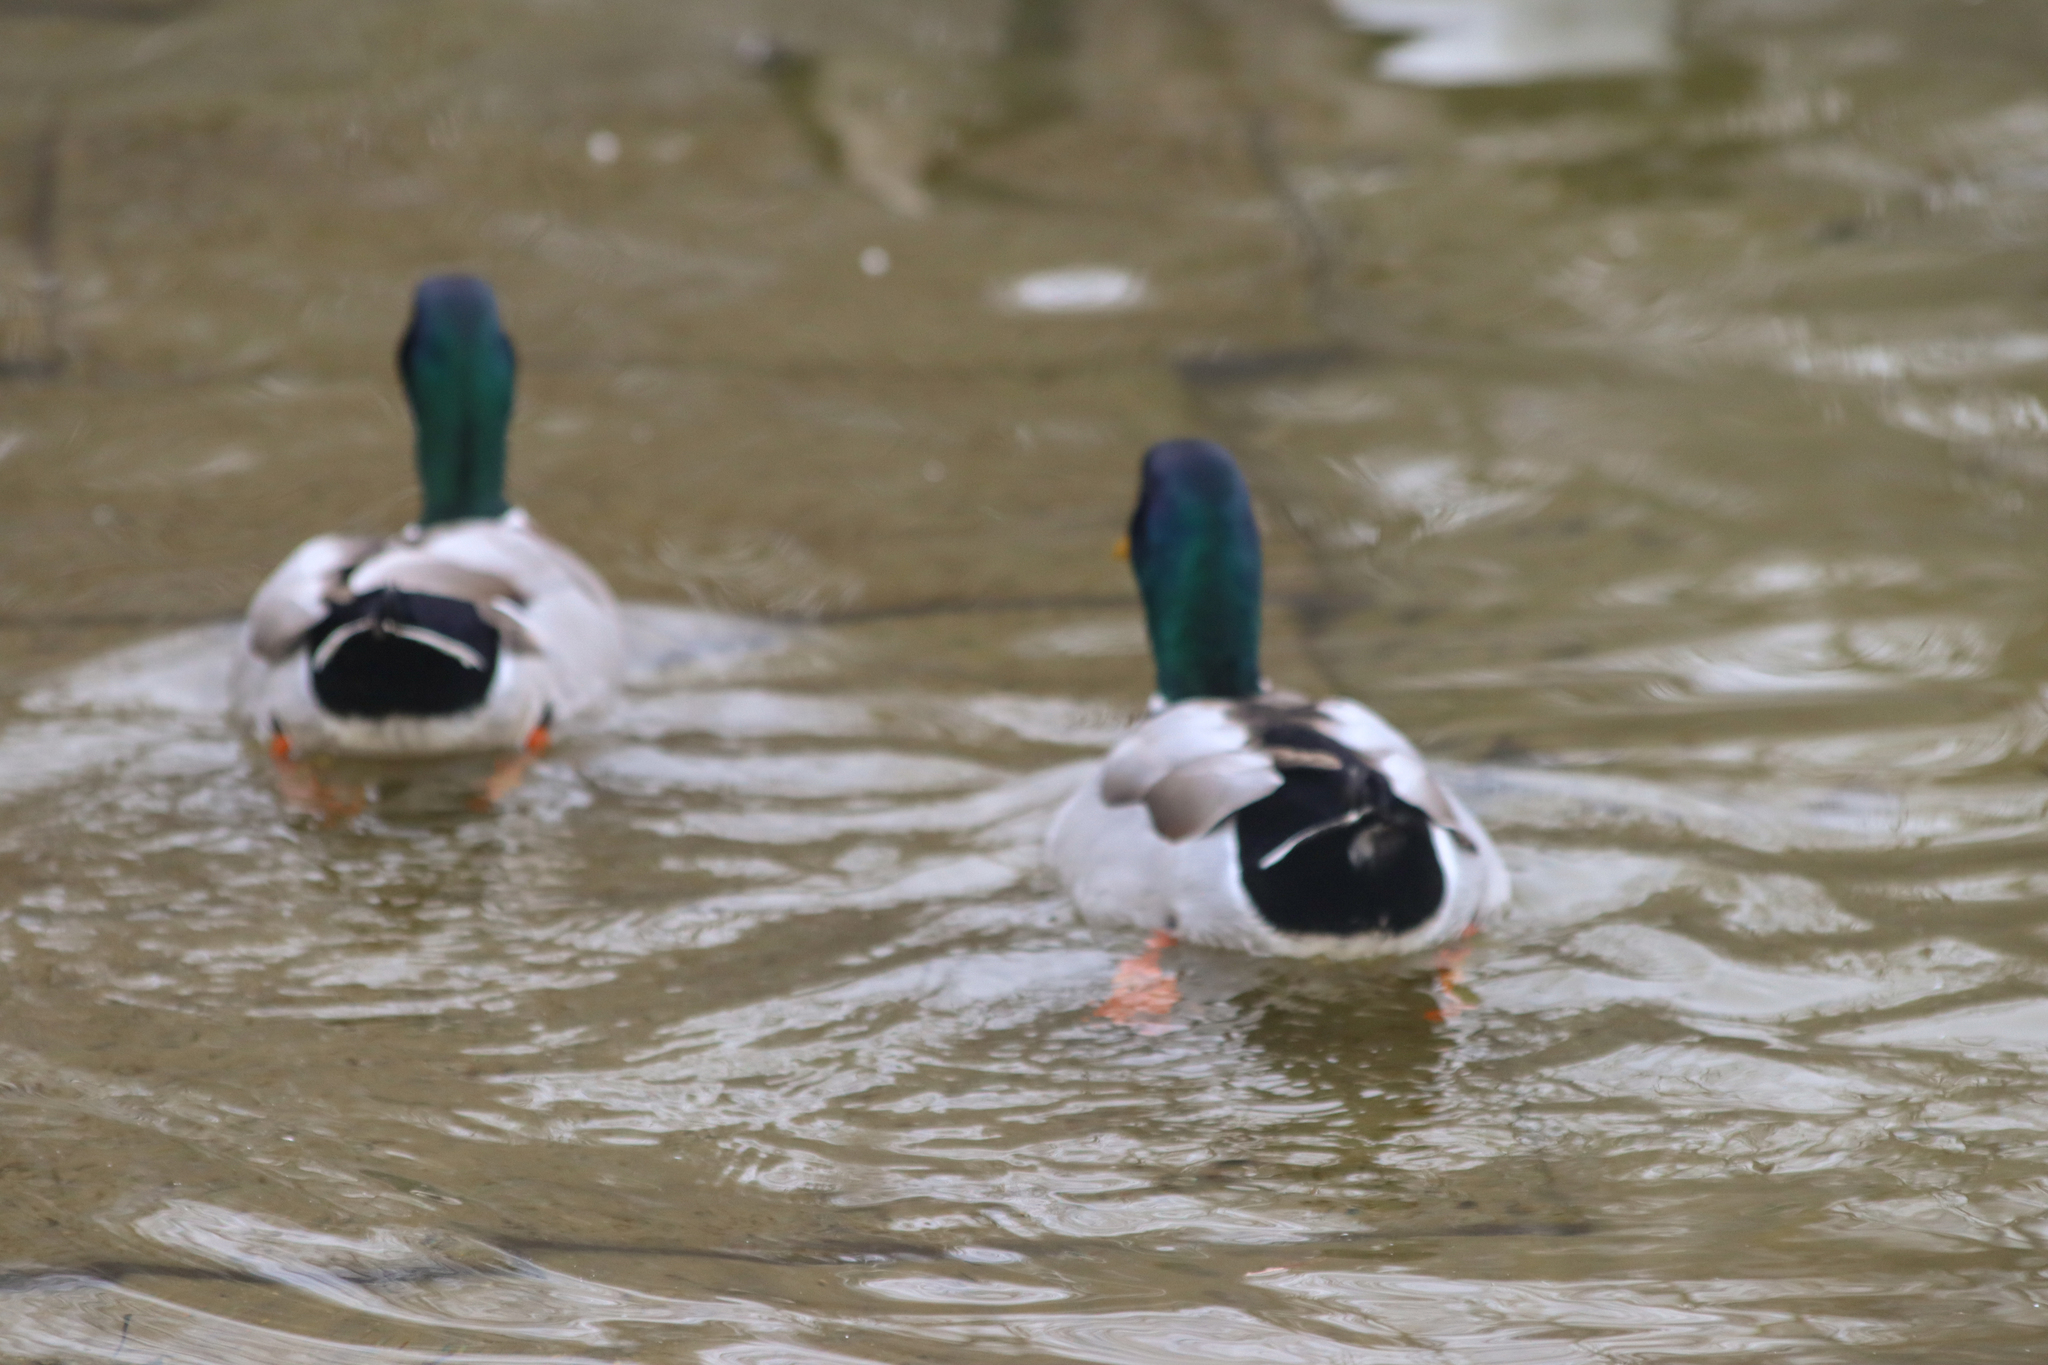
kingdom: Animalia
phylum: Chordata
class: Aves
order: Anseriformes
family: Anatidae
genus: Anas
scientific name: Anas platyrhynchos
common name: Mallard
